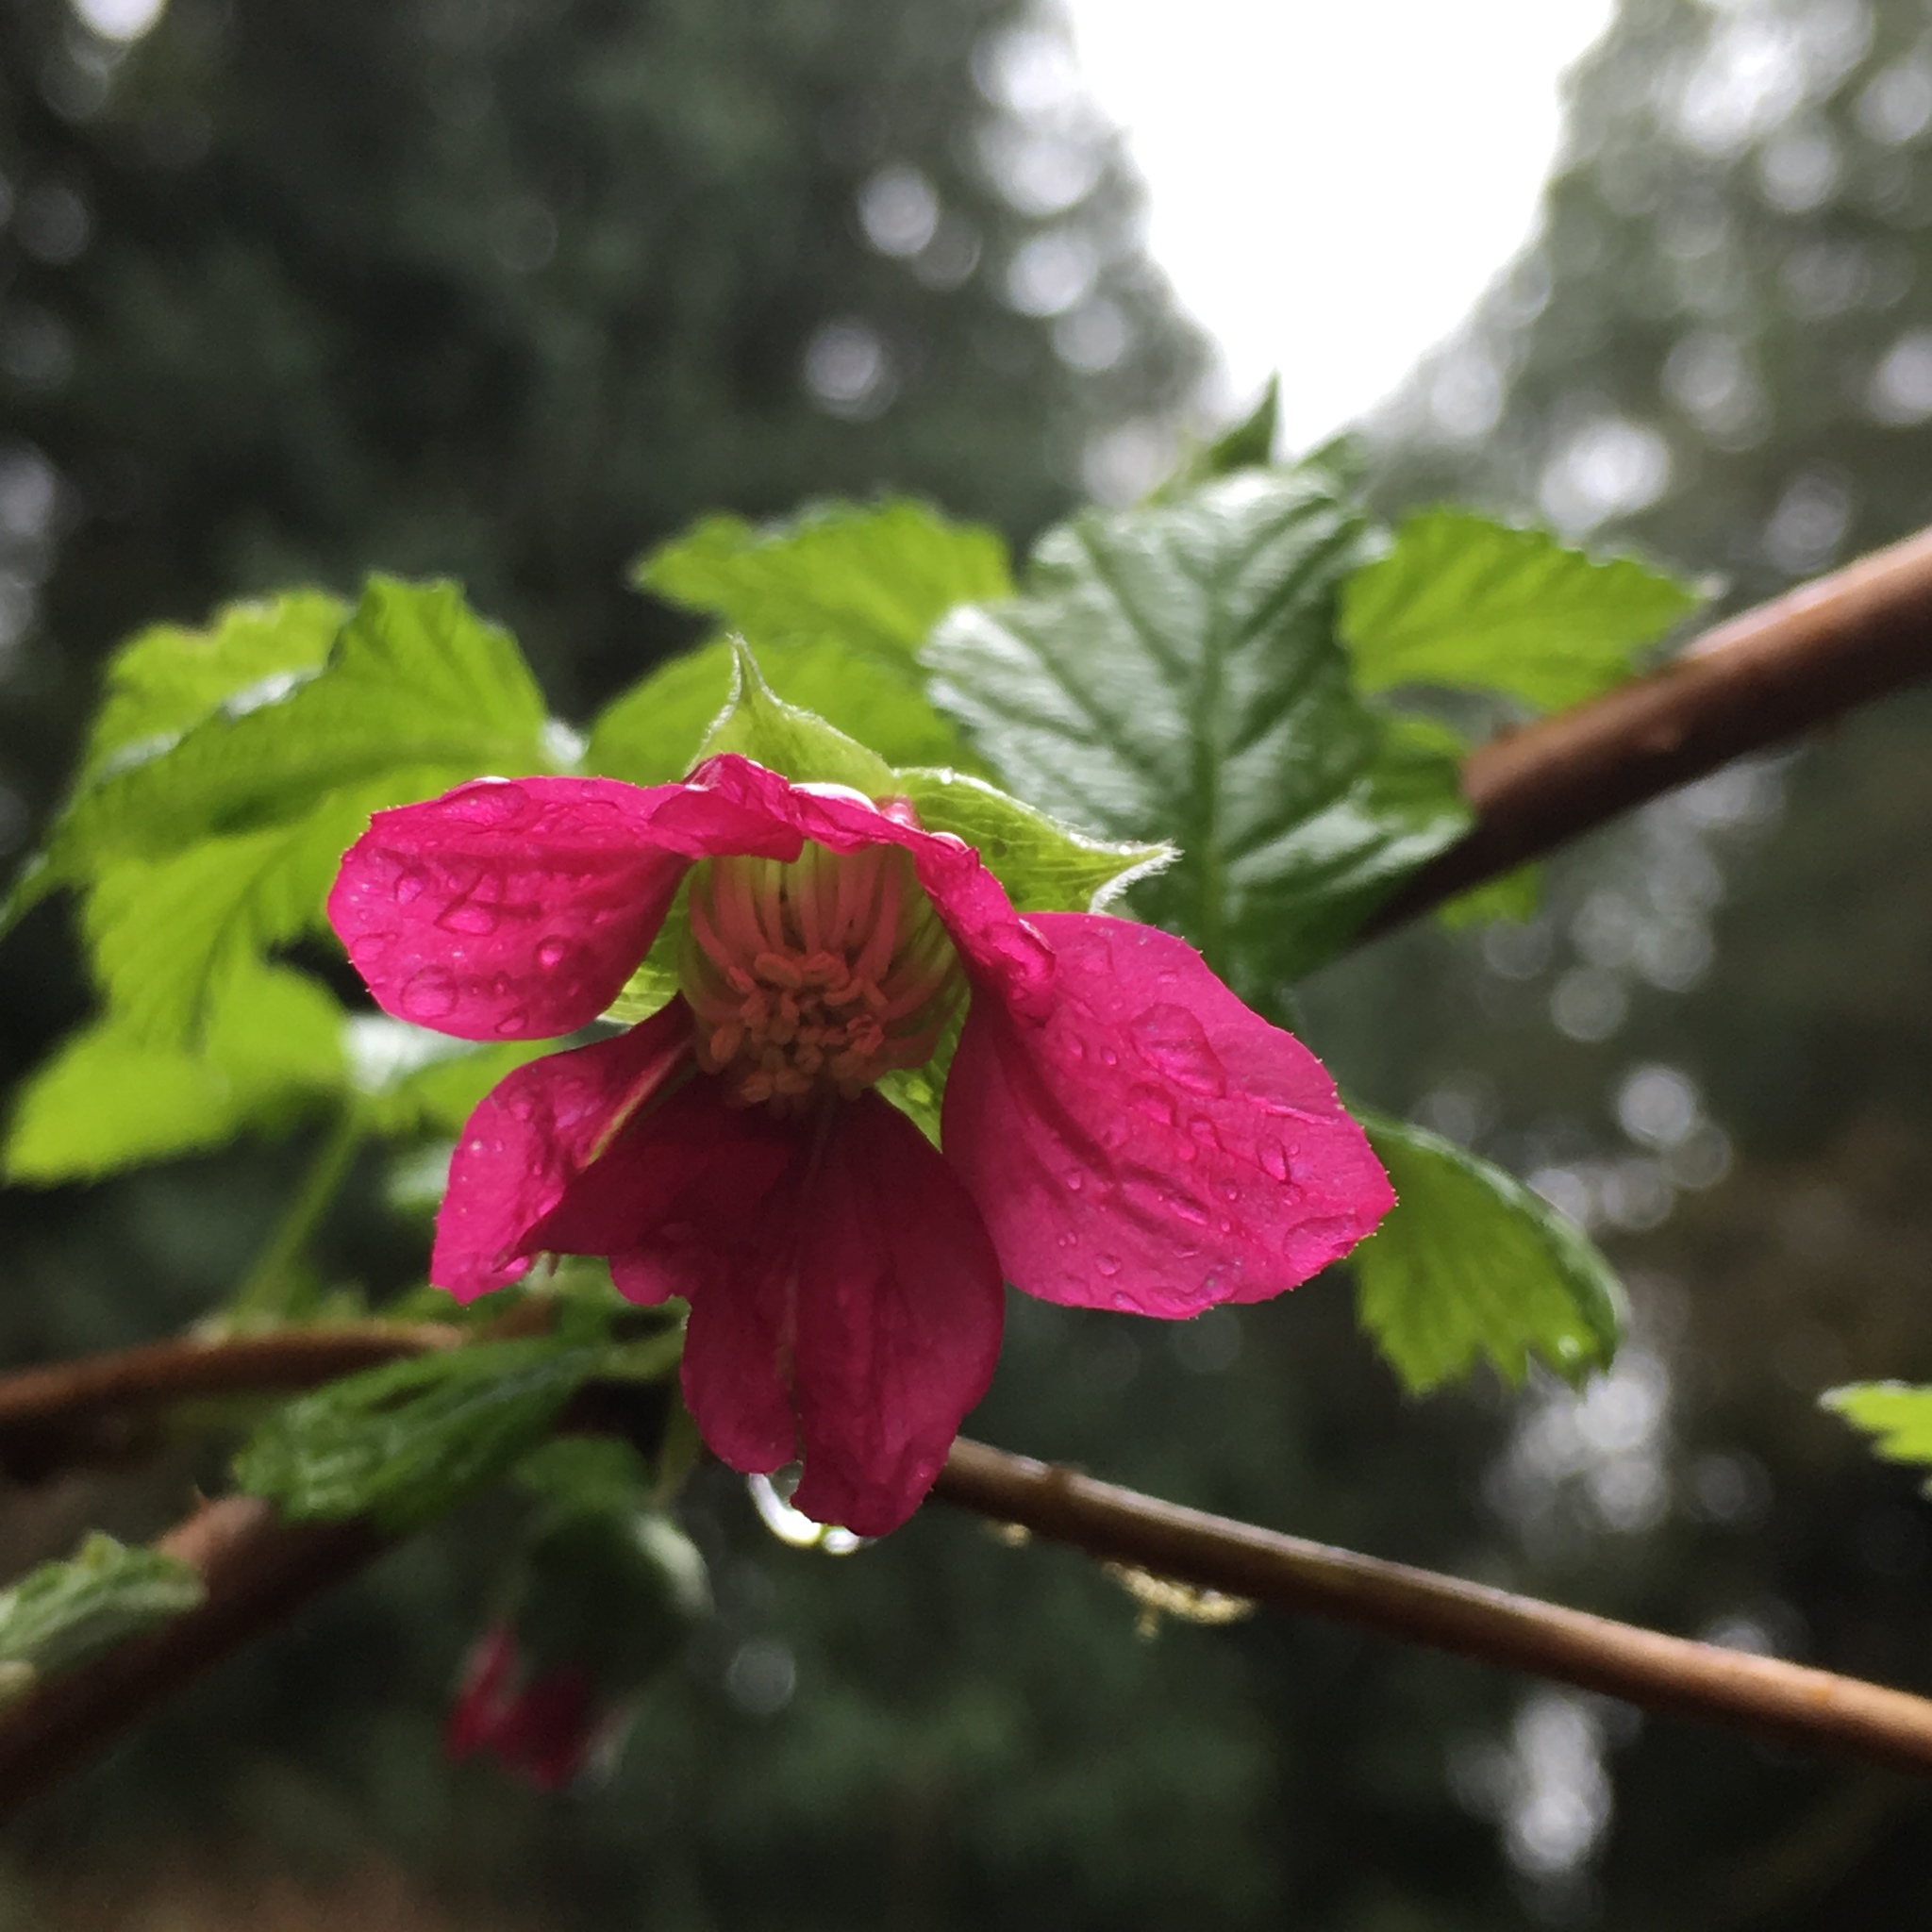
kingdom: Plantae
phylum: Tracheophyta
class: Magnoliopsida
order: Rosales
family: Rosaceae
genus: Rubus
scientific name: Rubus spectabilis
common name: Salmonberry
